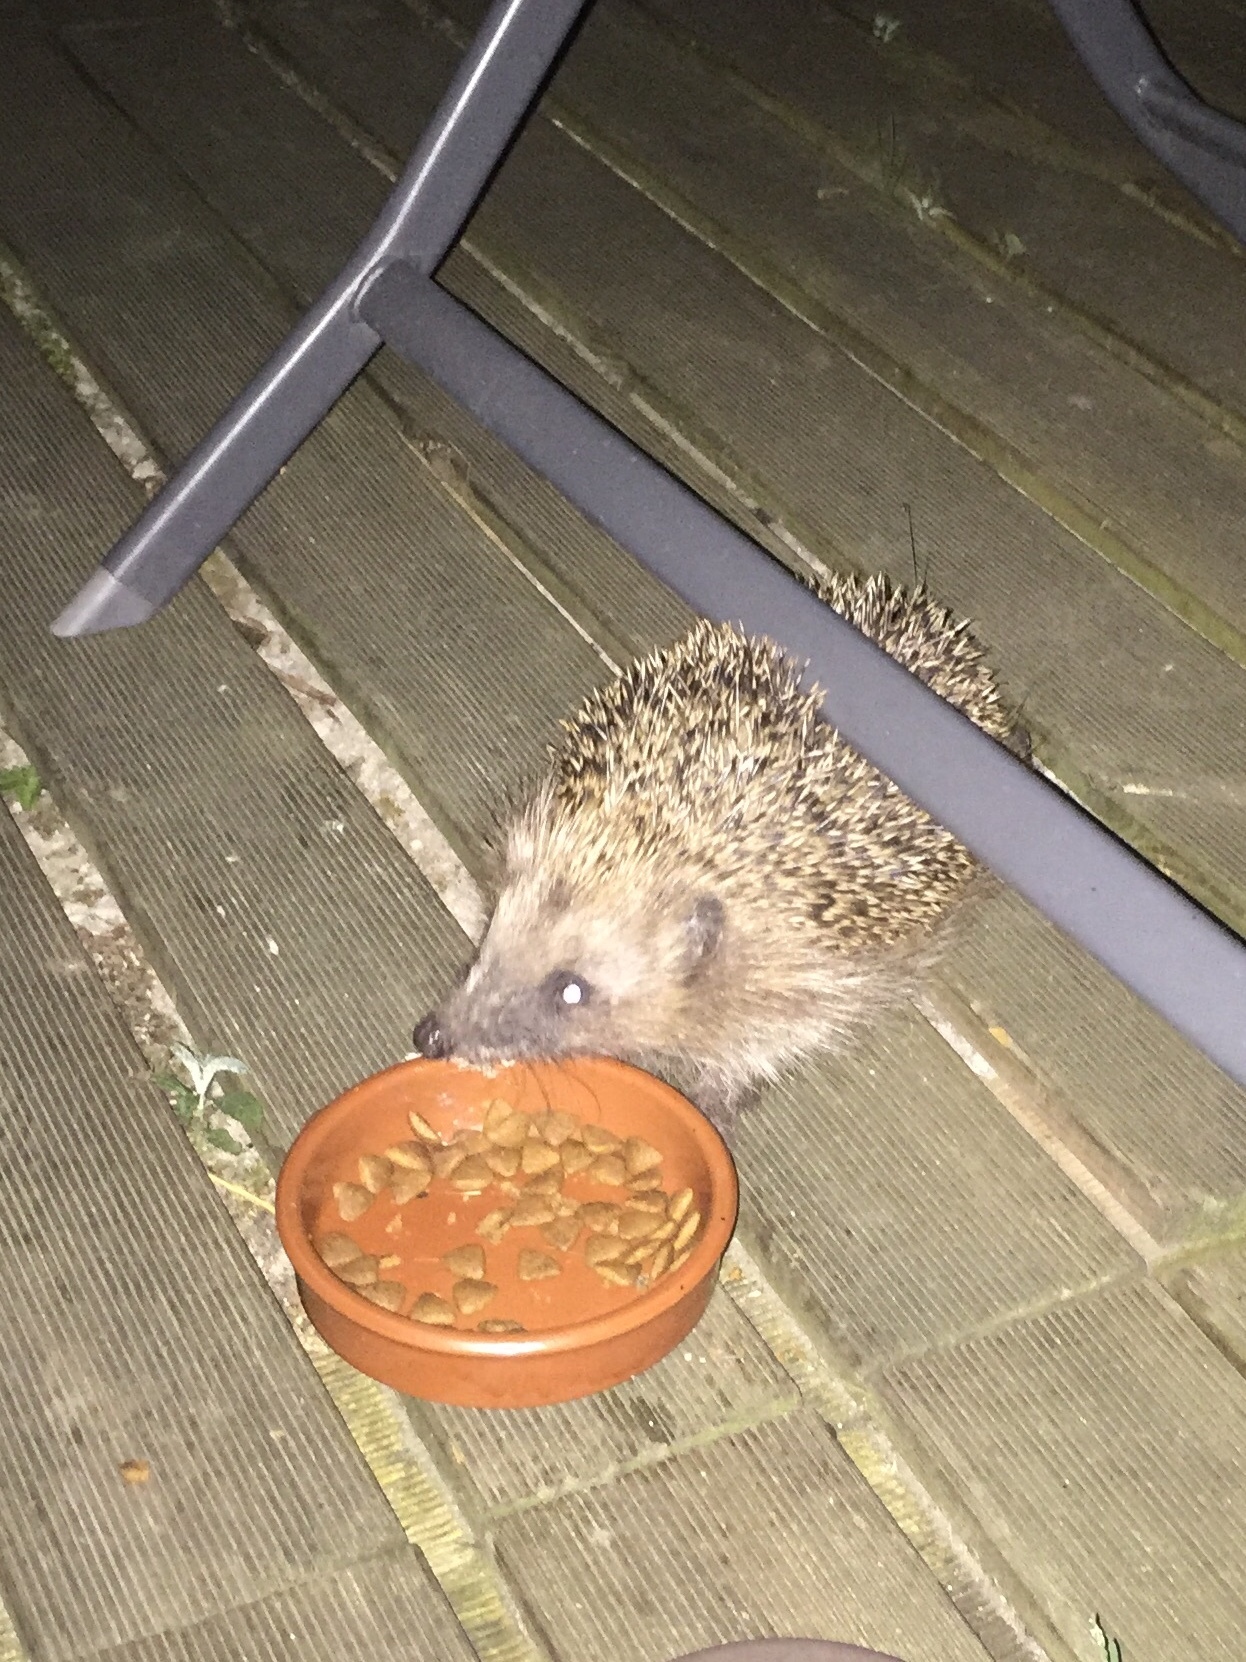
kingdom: Animalia
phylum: Chordata
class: Mammalia
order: Erinaceomorpha
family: Erinaceidae
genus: Erinaceus
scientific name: Erinaceus europaeus
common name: West european hedgehog
